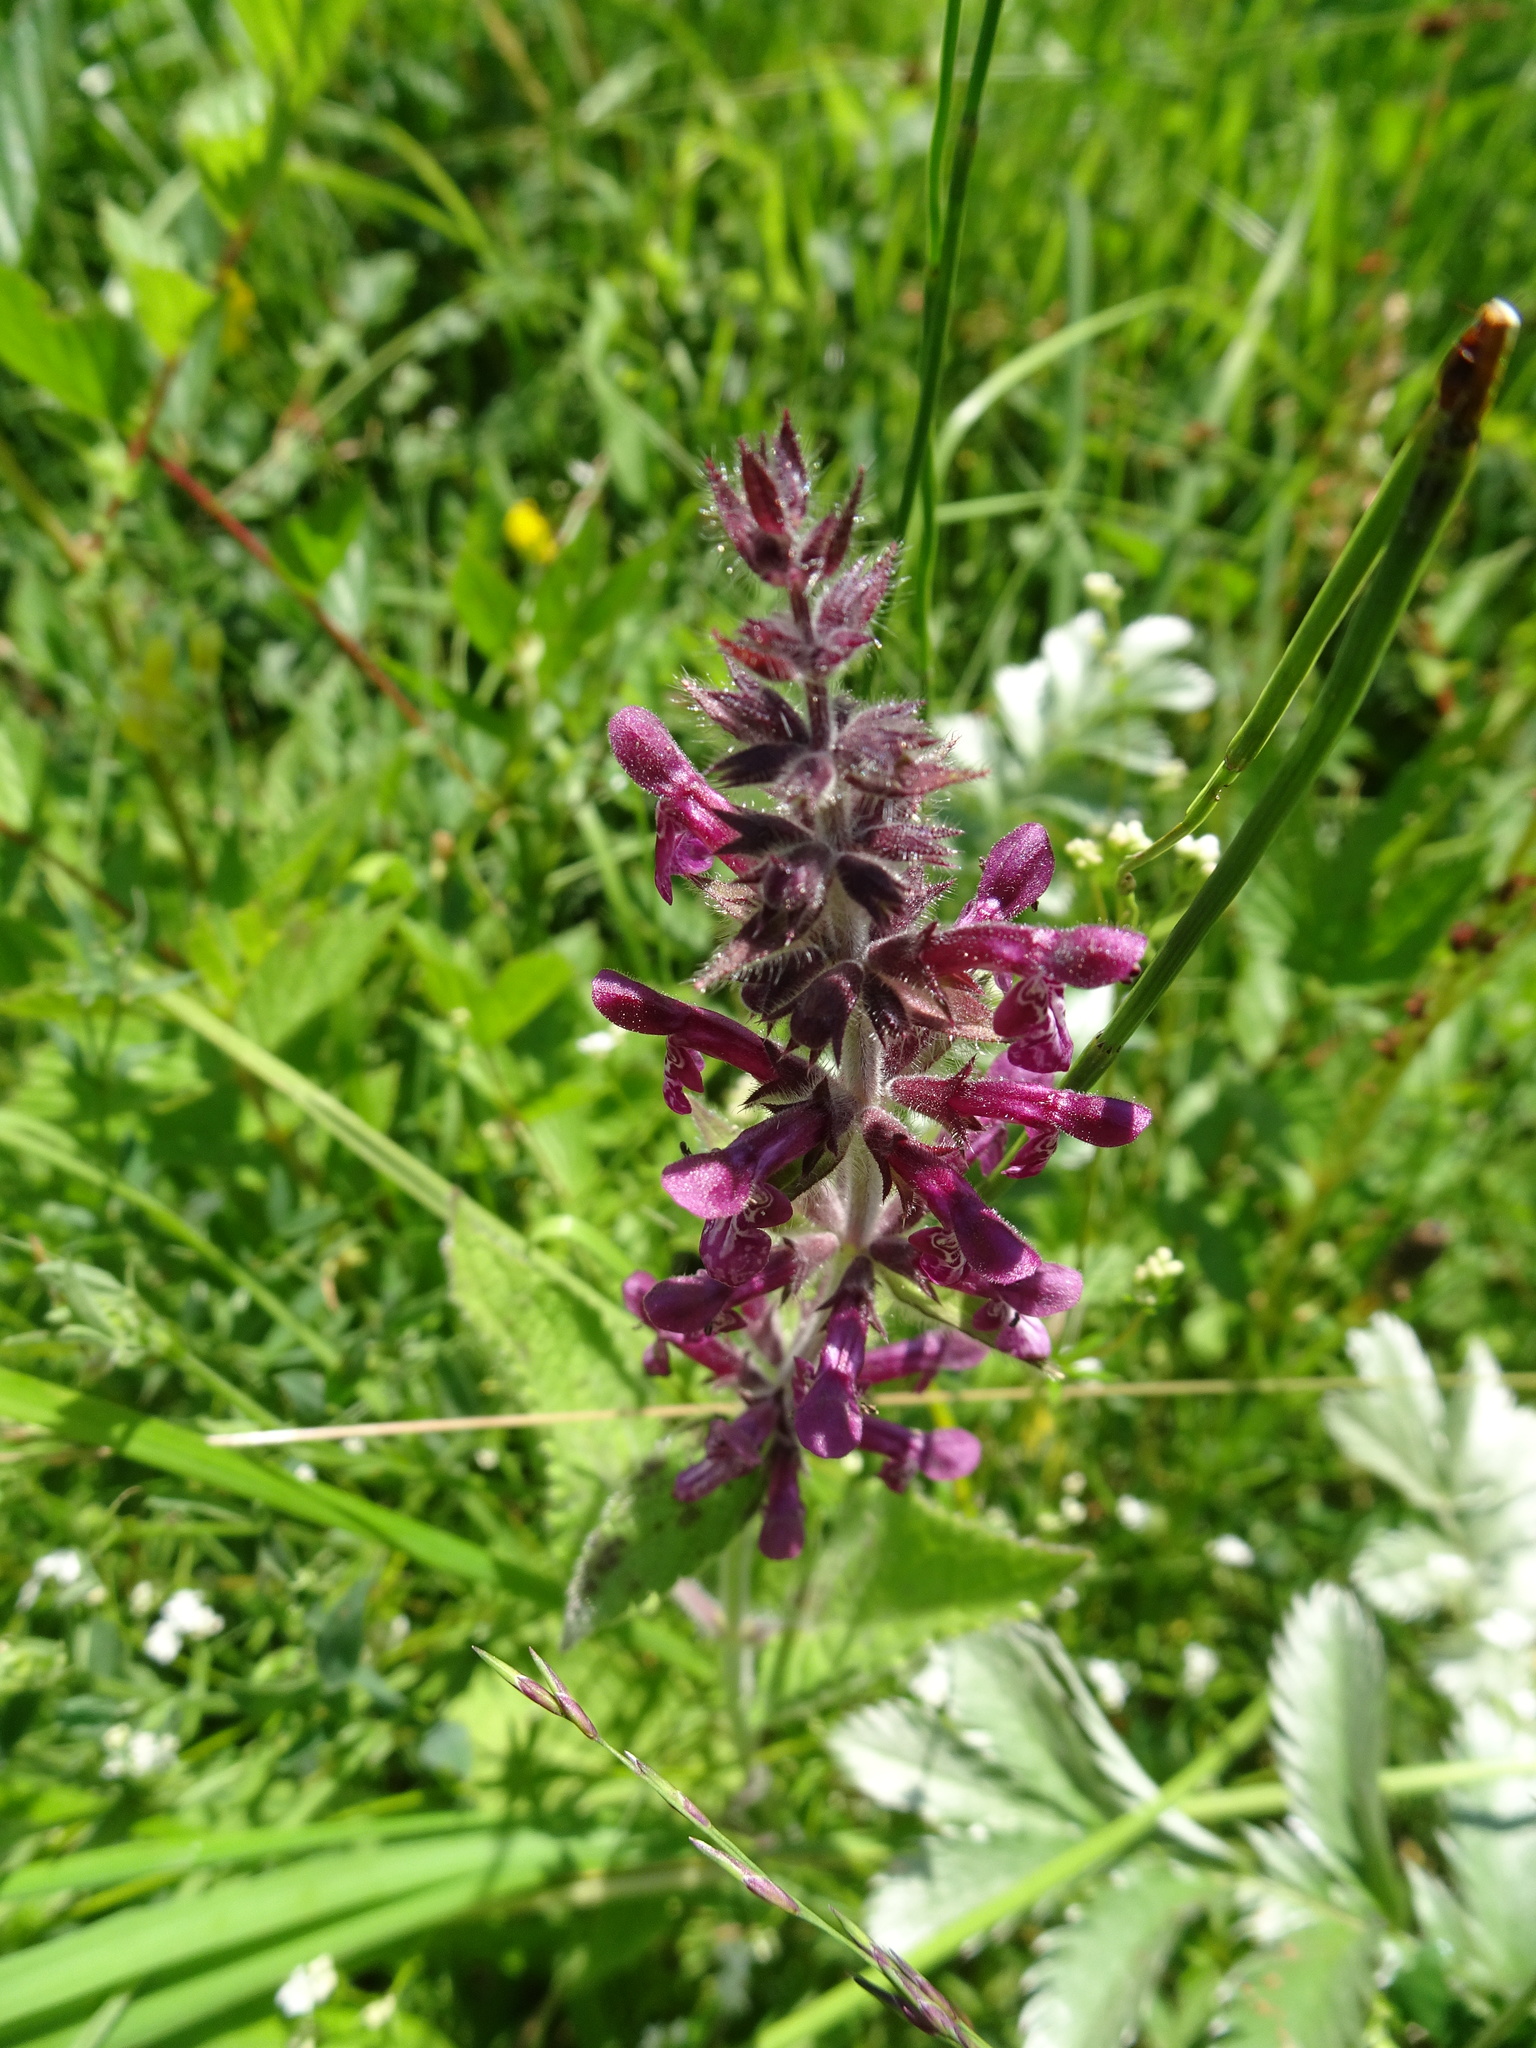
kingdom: Plantae
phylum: Tracheophyta
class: Magnoliopsida
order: Lamiales
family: Lamiaceae
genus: Stachys
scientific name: Stachys sylvatica
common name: Hedge woundwort
